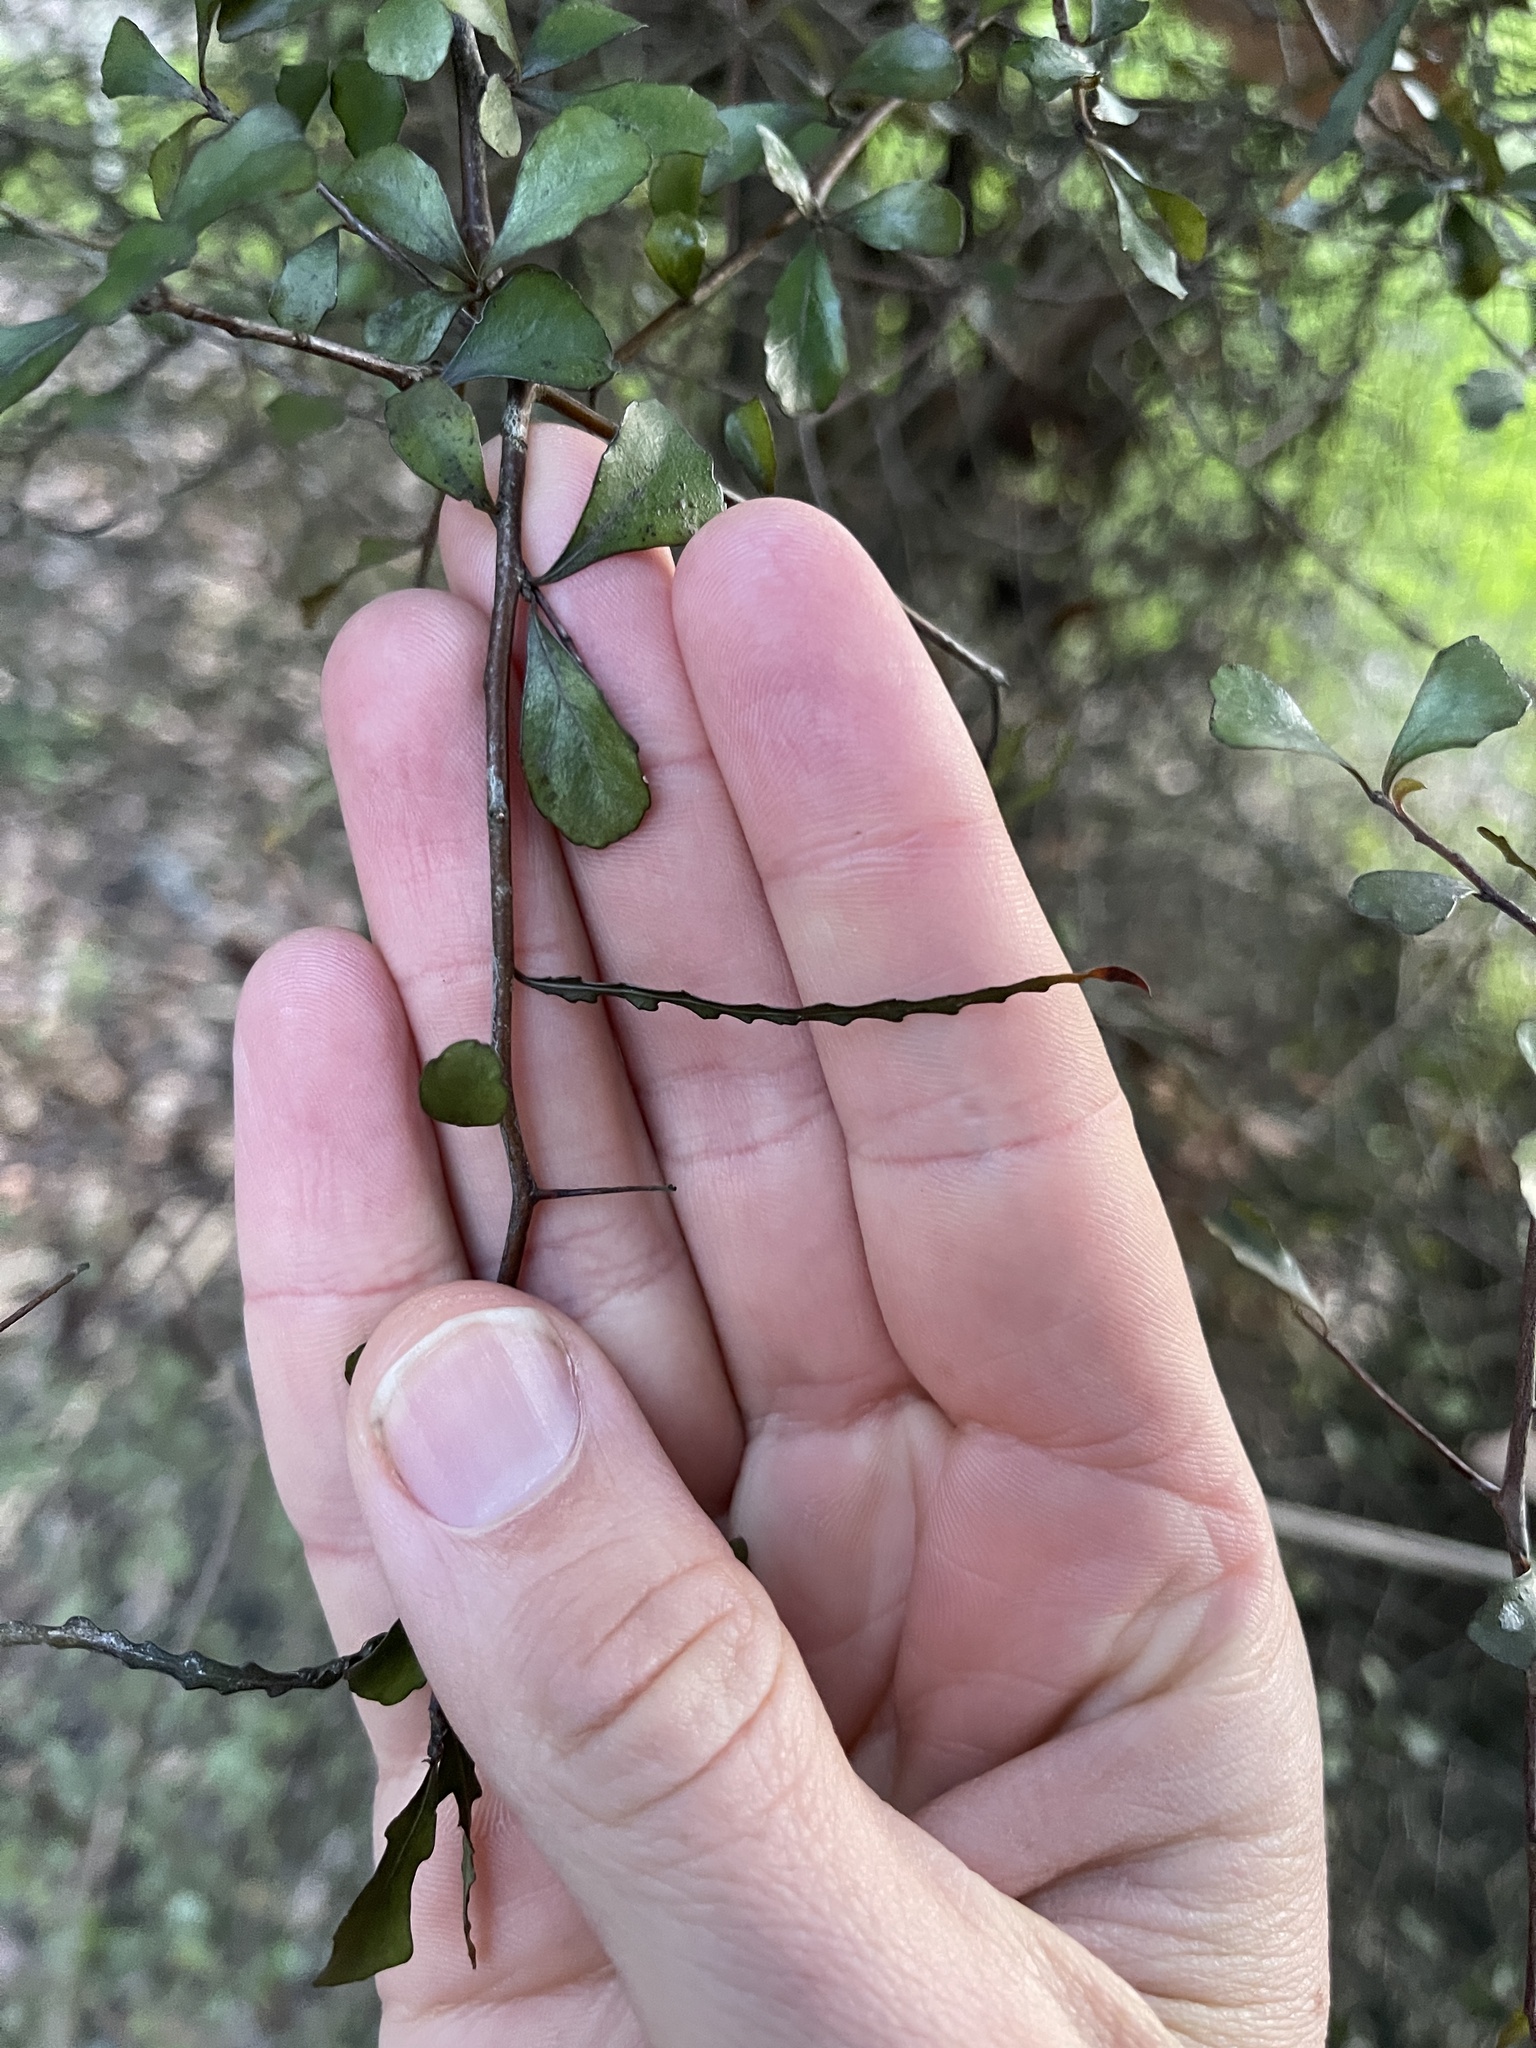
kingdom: Plantae
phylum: Tracheophyta
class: Magnoliopsida
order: Oxalidales
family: Elaeocarpaceae
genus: Elaeocarpus
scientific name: Elaeocarpus hookerianus
